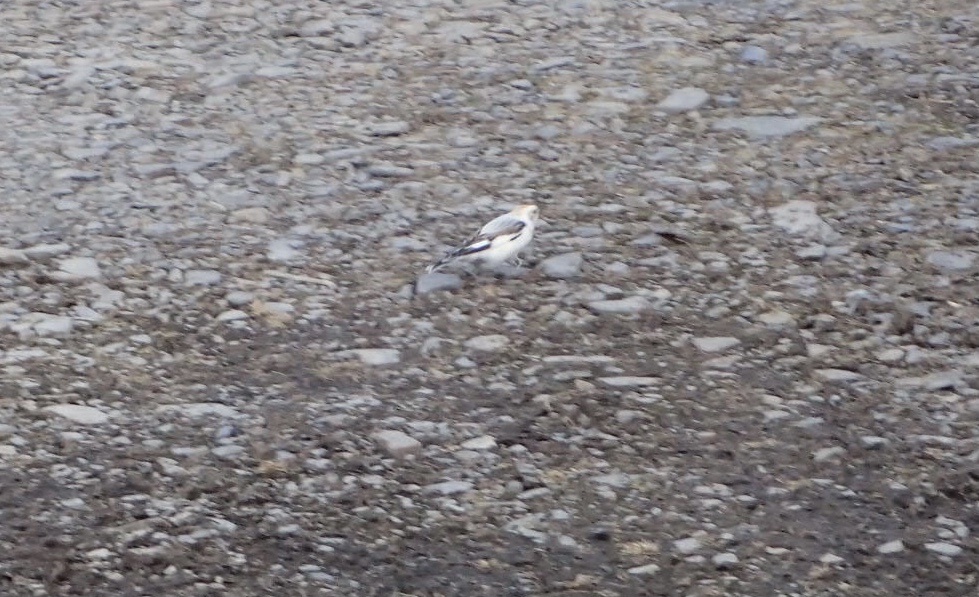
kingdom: Animalia
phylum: Chordata
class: Aves
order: Passeriformes
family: Calcariidae
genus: Plectrophenax
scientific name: Plectrophenax nivalis
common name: Snow bunting
